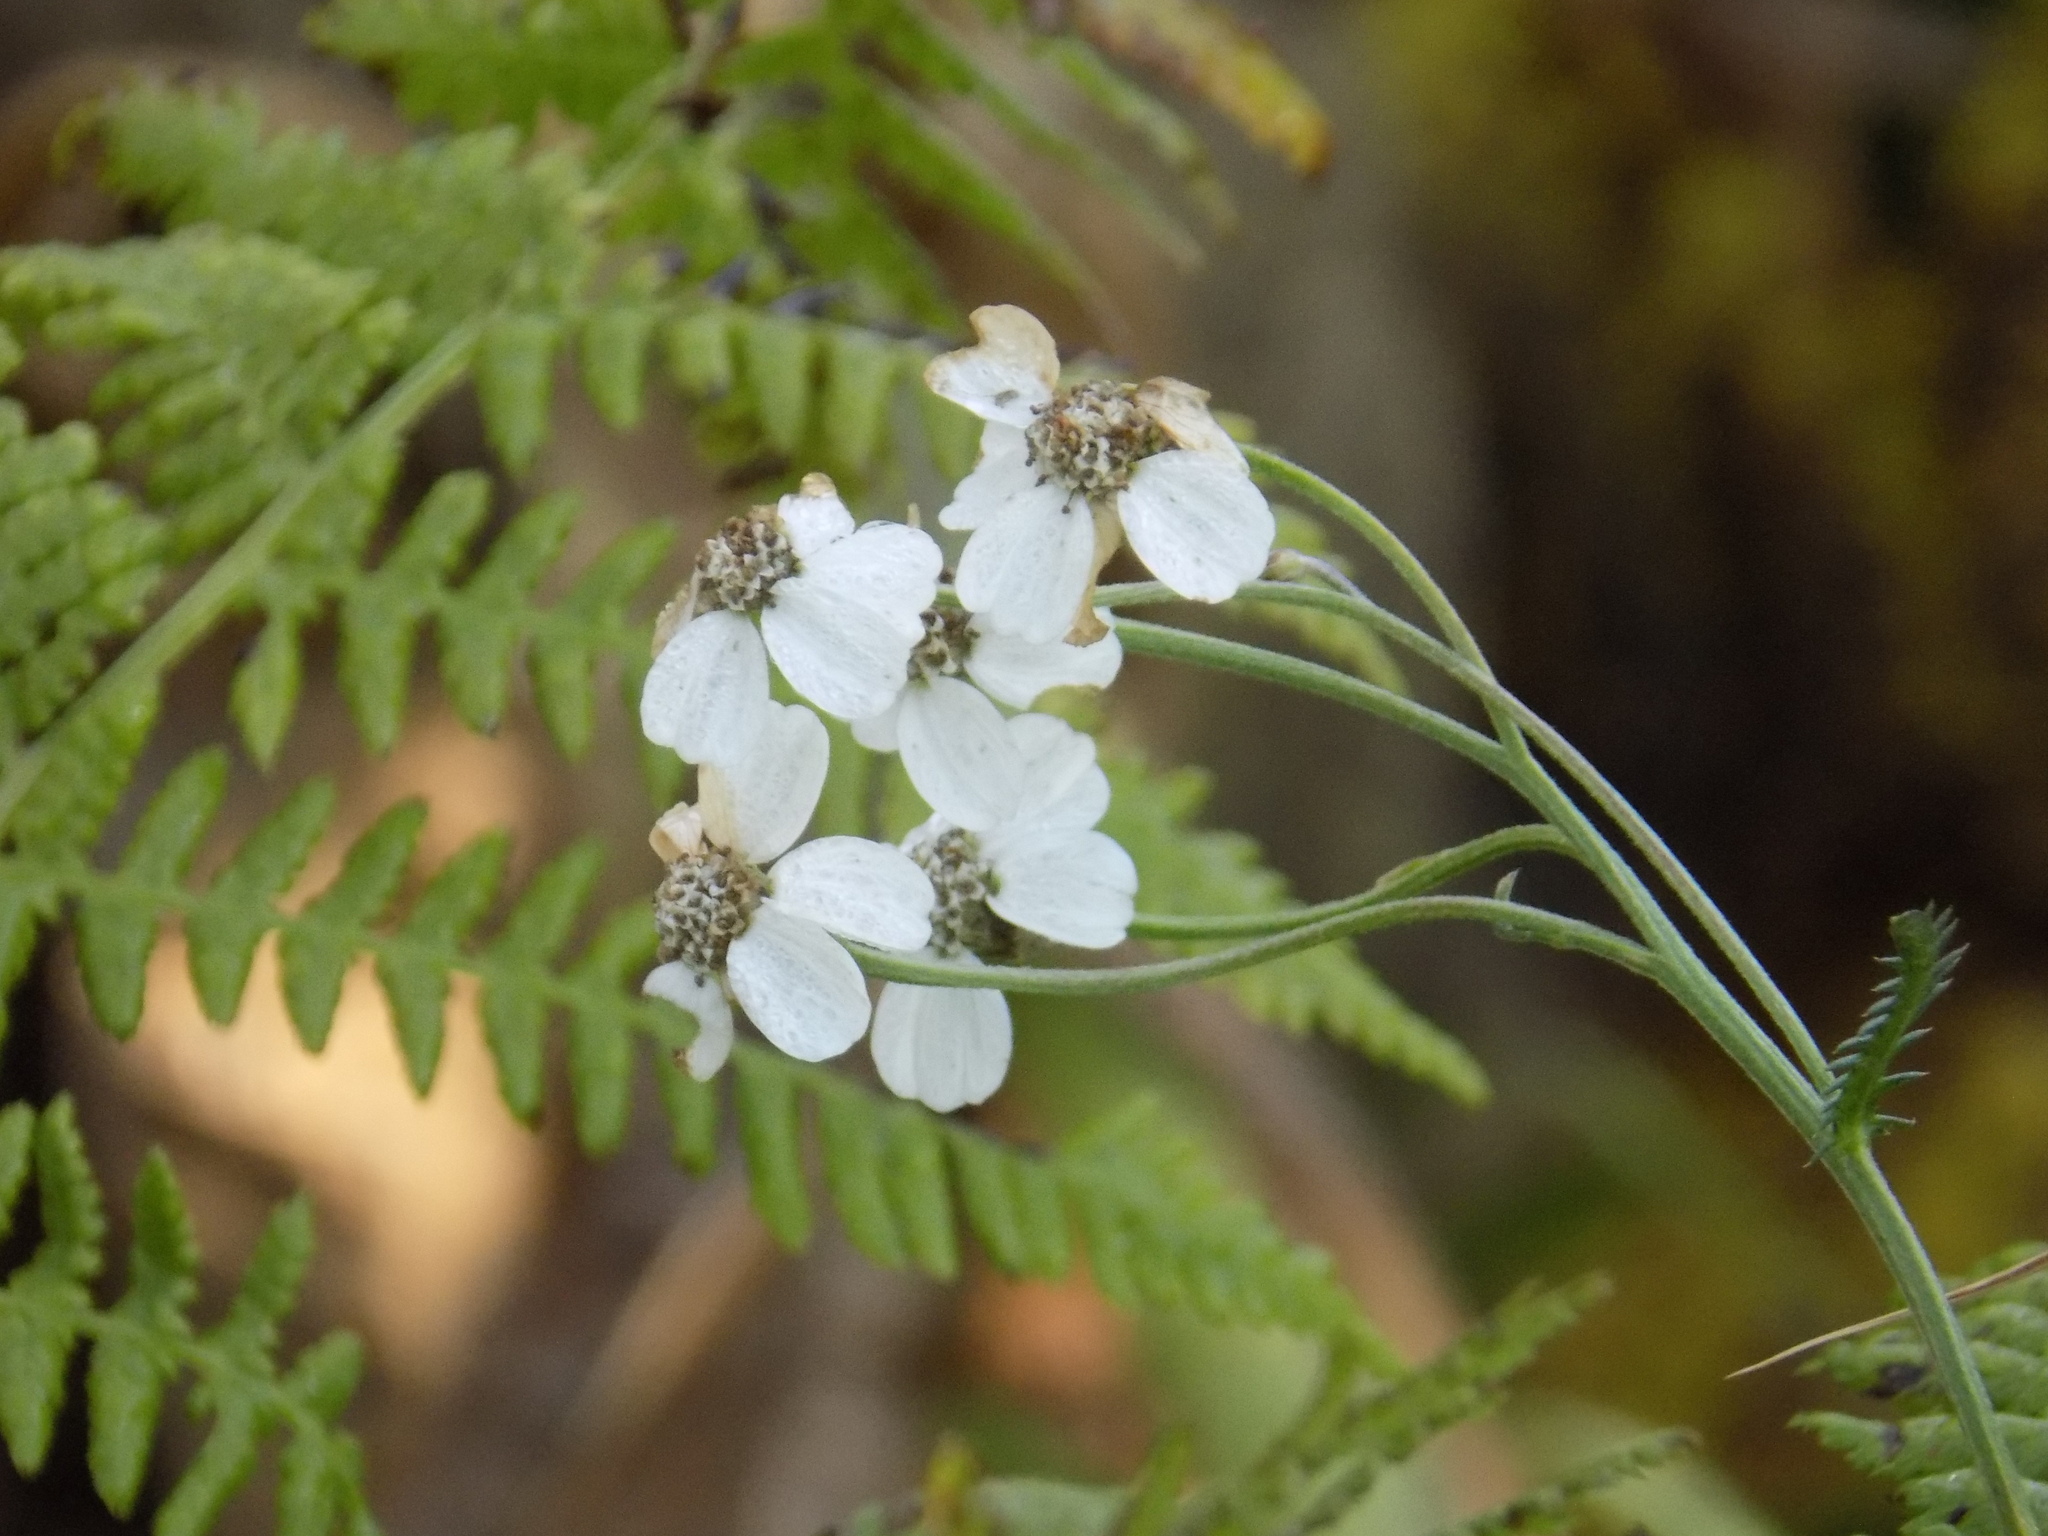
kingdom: Plantae
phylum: Tracheophyta
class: Magnoliopsida
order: Asterales
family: Asteraceae
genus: Achillea
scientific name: Achillea impatiens
